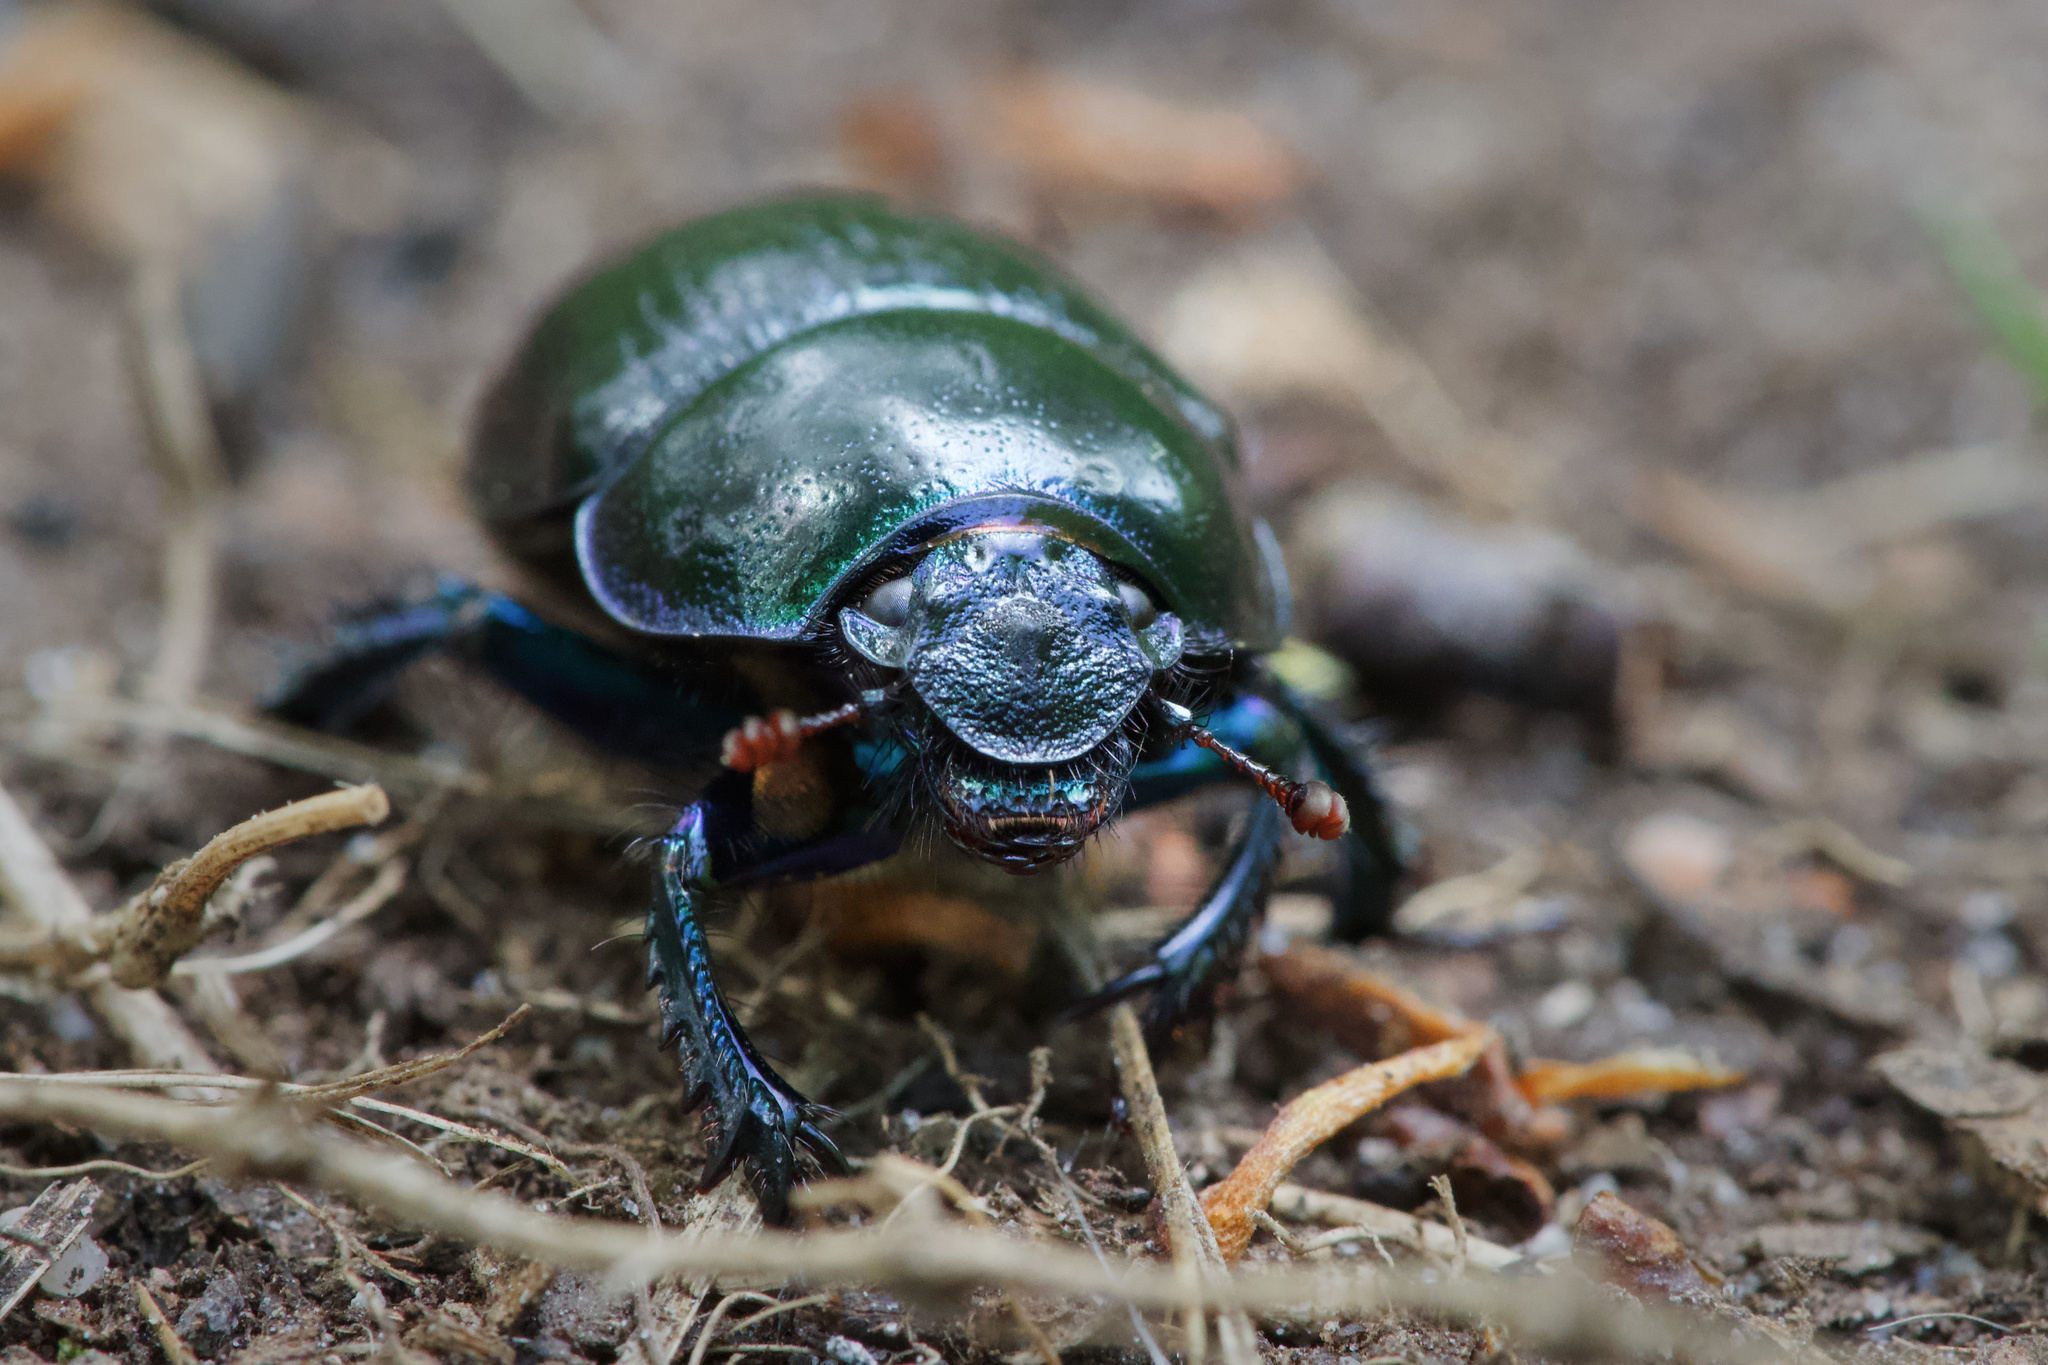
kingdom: Animalia
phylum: Arthropoda
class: Insecta
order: Coleoptera
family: Geotrupidae
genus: Anoplotrupes
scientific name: Anoplotrupes stercorosus
